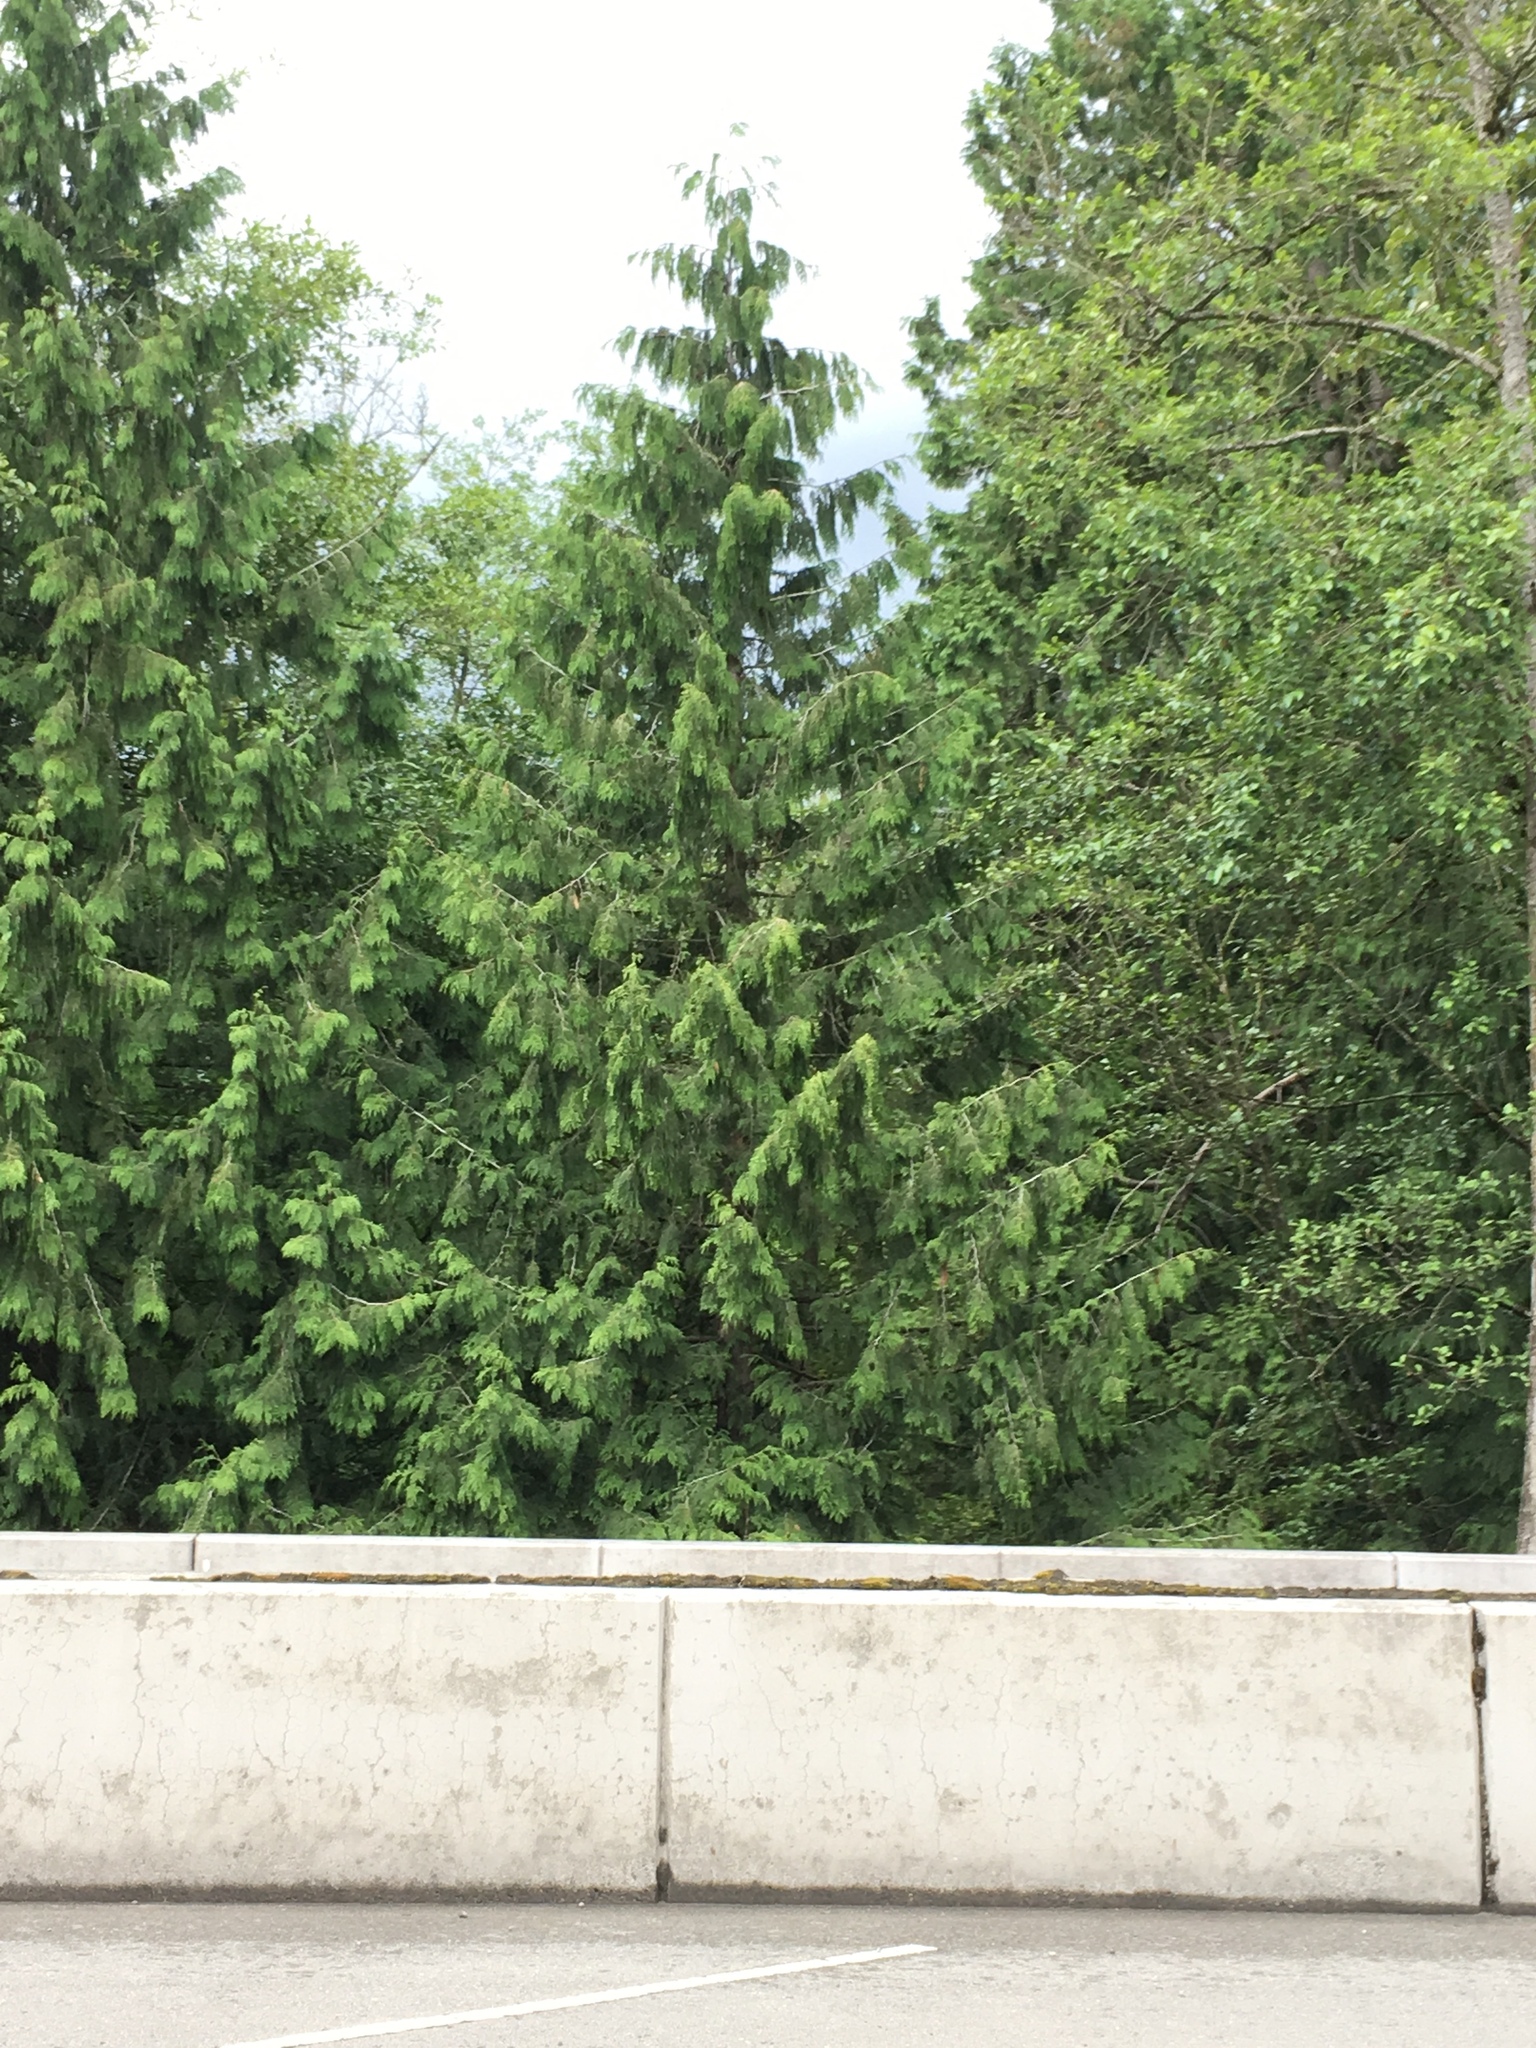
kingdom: Plantae
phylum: Tracheophyta
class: Pinopsida
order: Pinales
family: Cupressaceae
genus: Thuja
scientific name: Thuja plicata
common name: Western red-cedar
